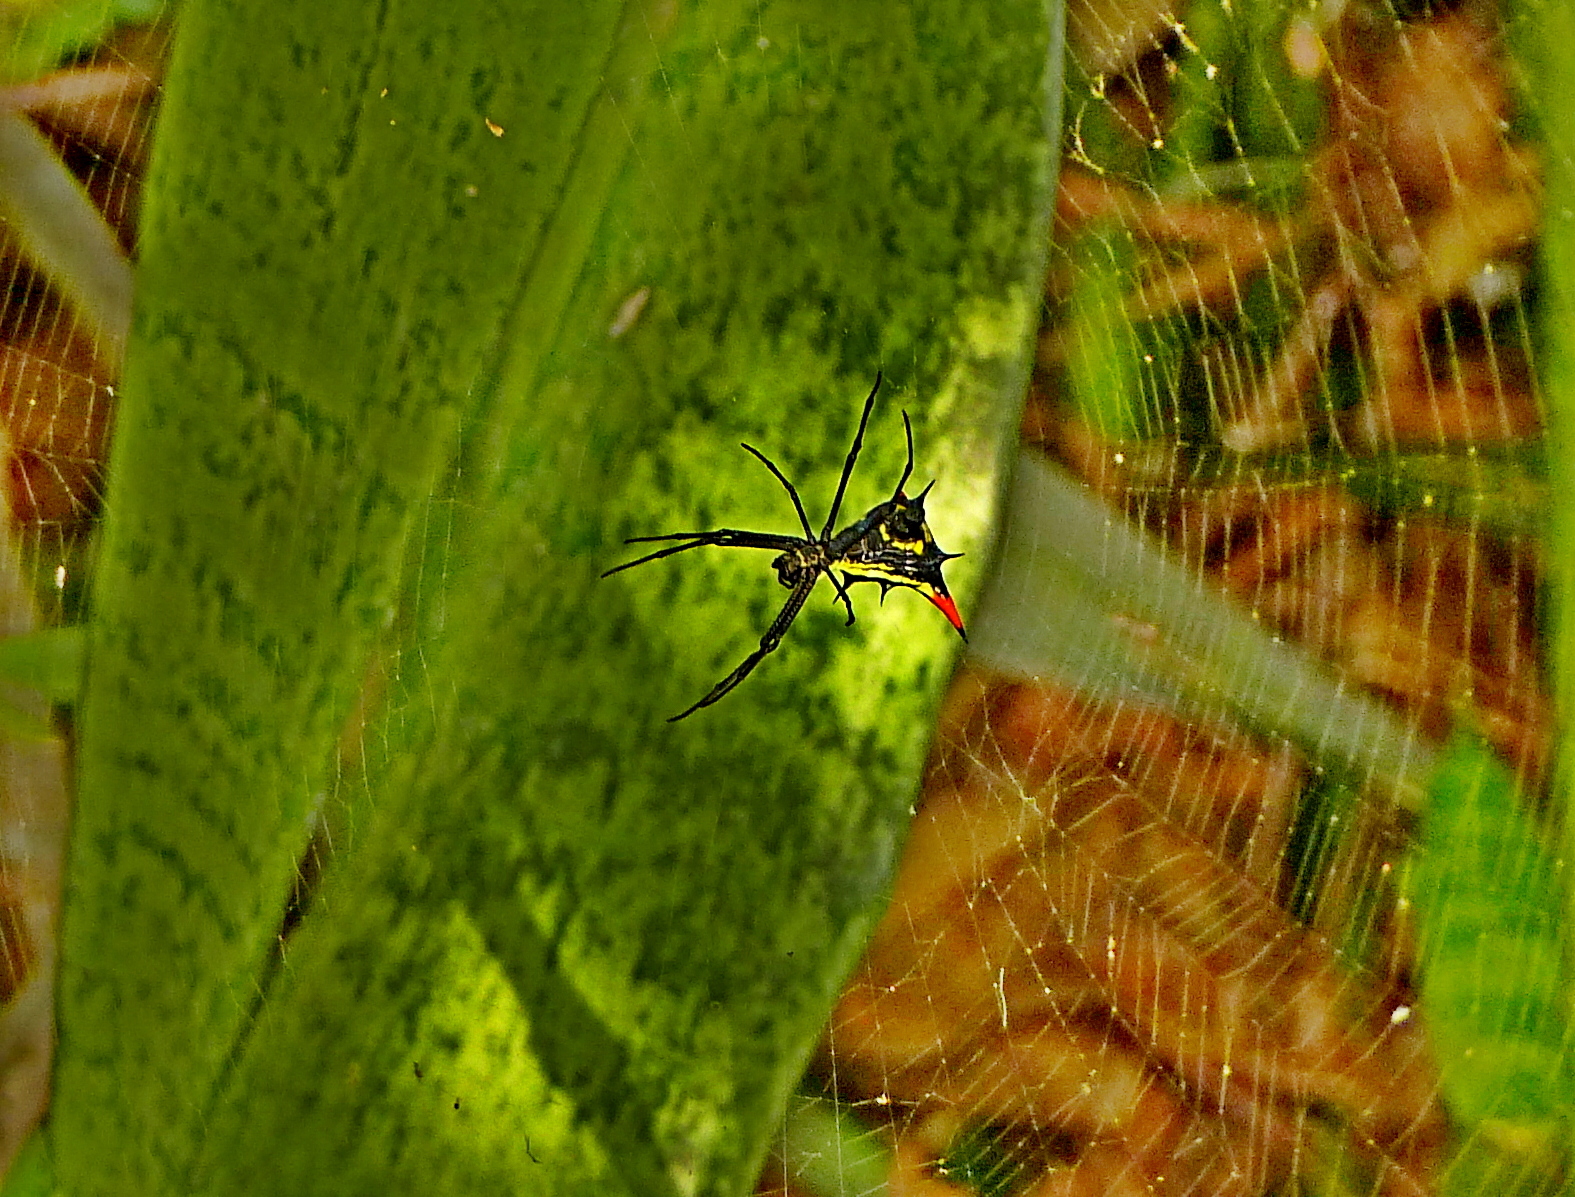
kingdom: Animalia
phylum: Arthropoda
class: Arachnida
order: Araneae
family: Araneidae
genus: Micrathena
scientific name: Micrathena schreibersi
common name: Orb weavers
